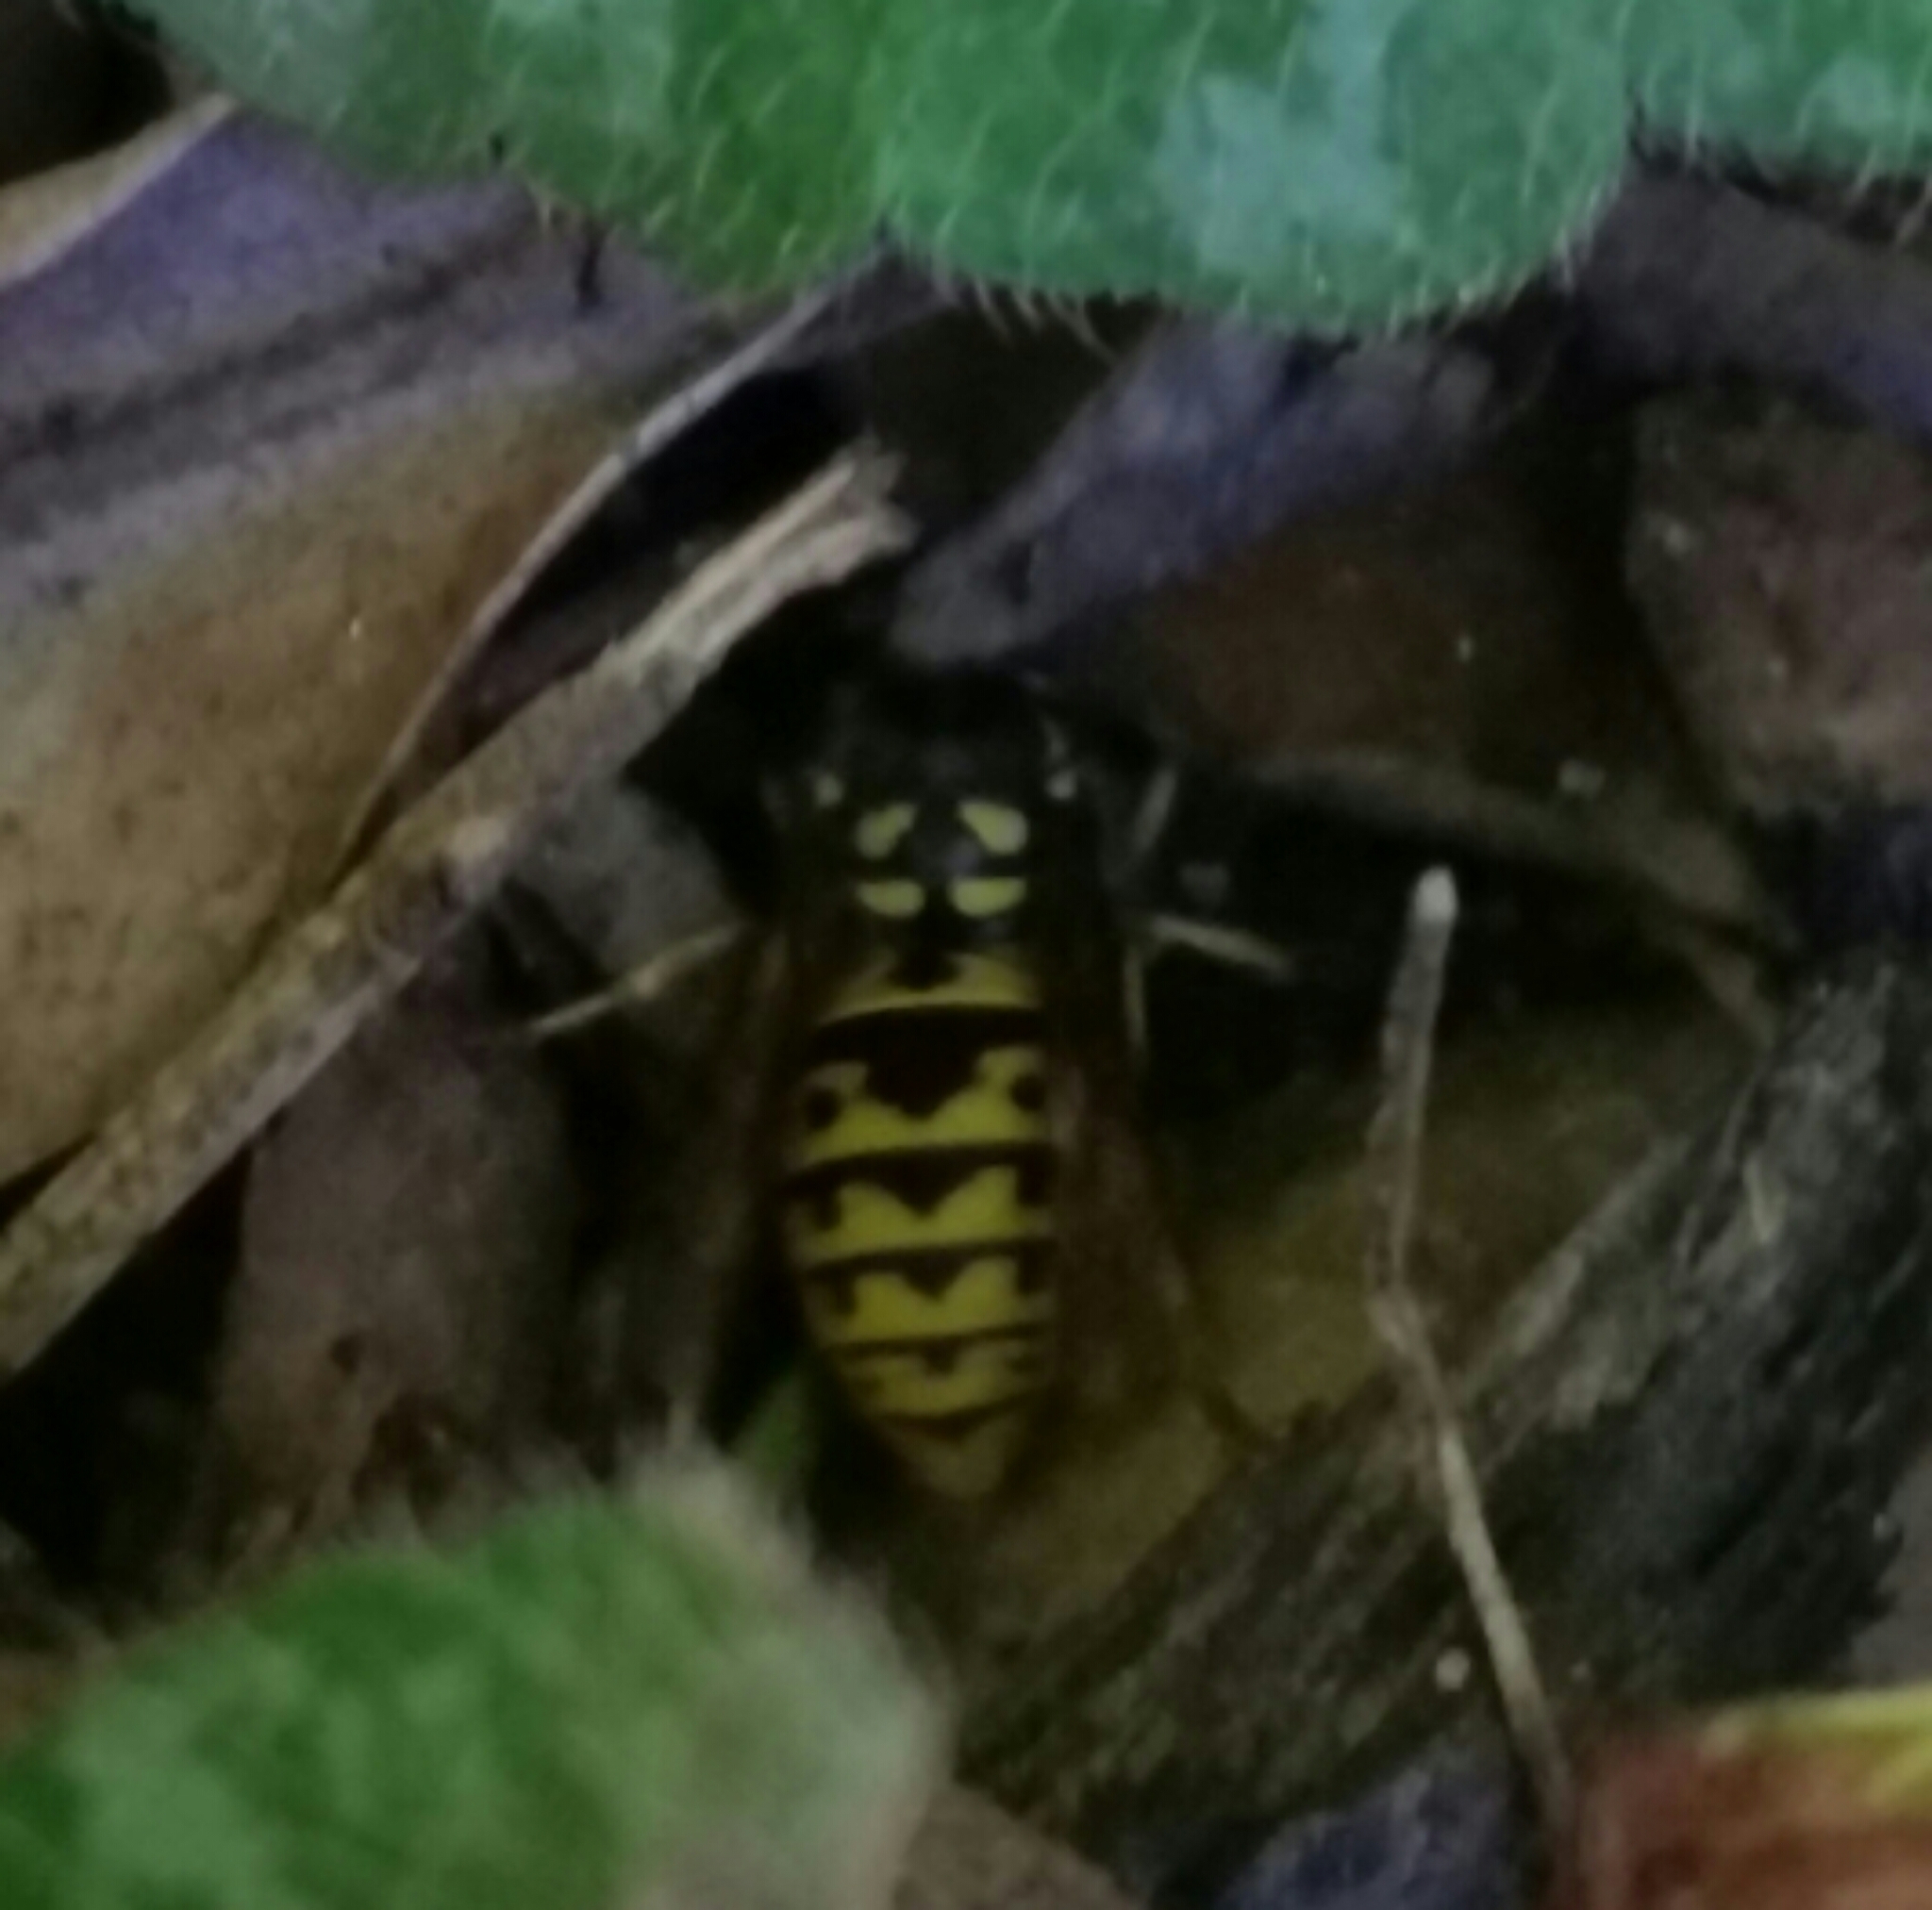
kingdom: Animalia
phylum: Arthropoda
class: Insecta
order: Hymenoptera
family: Vespidae
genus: Vespula
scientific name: Vespula germanica
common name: German wasp
